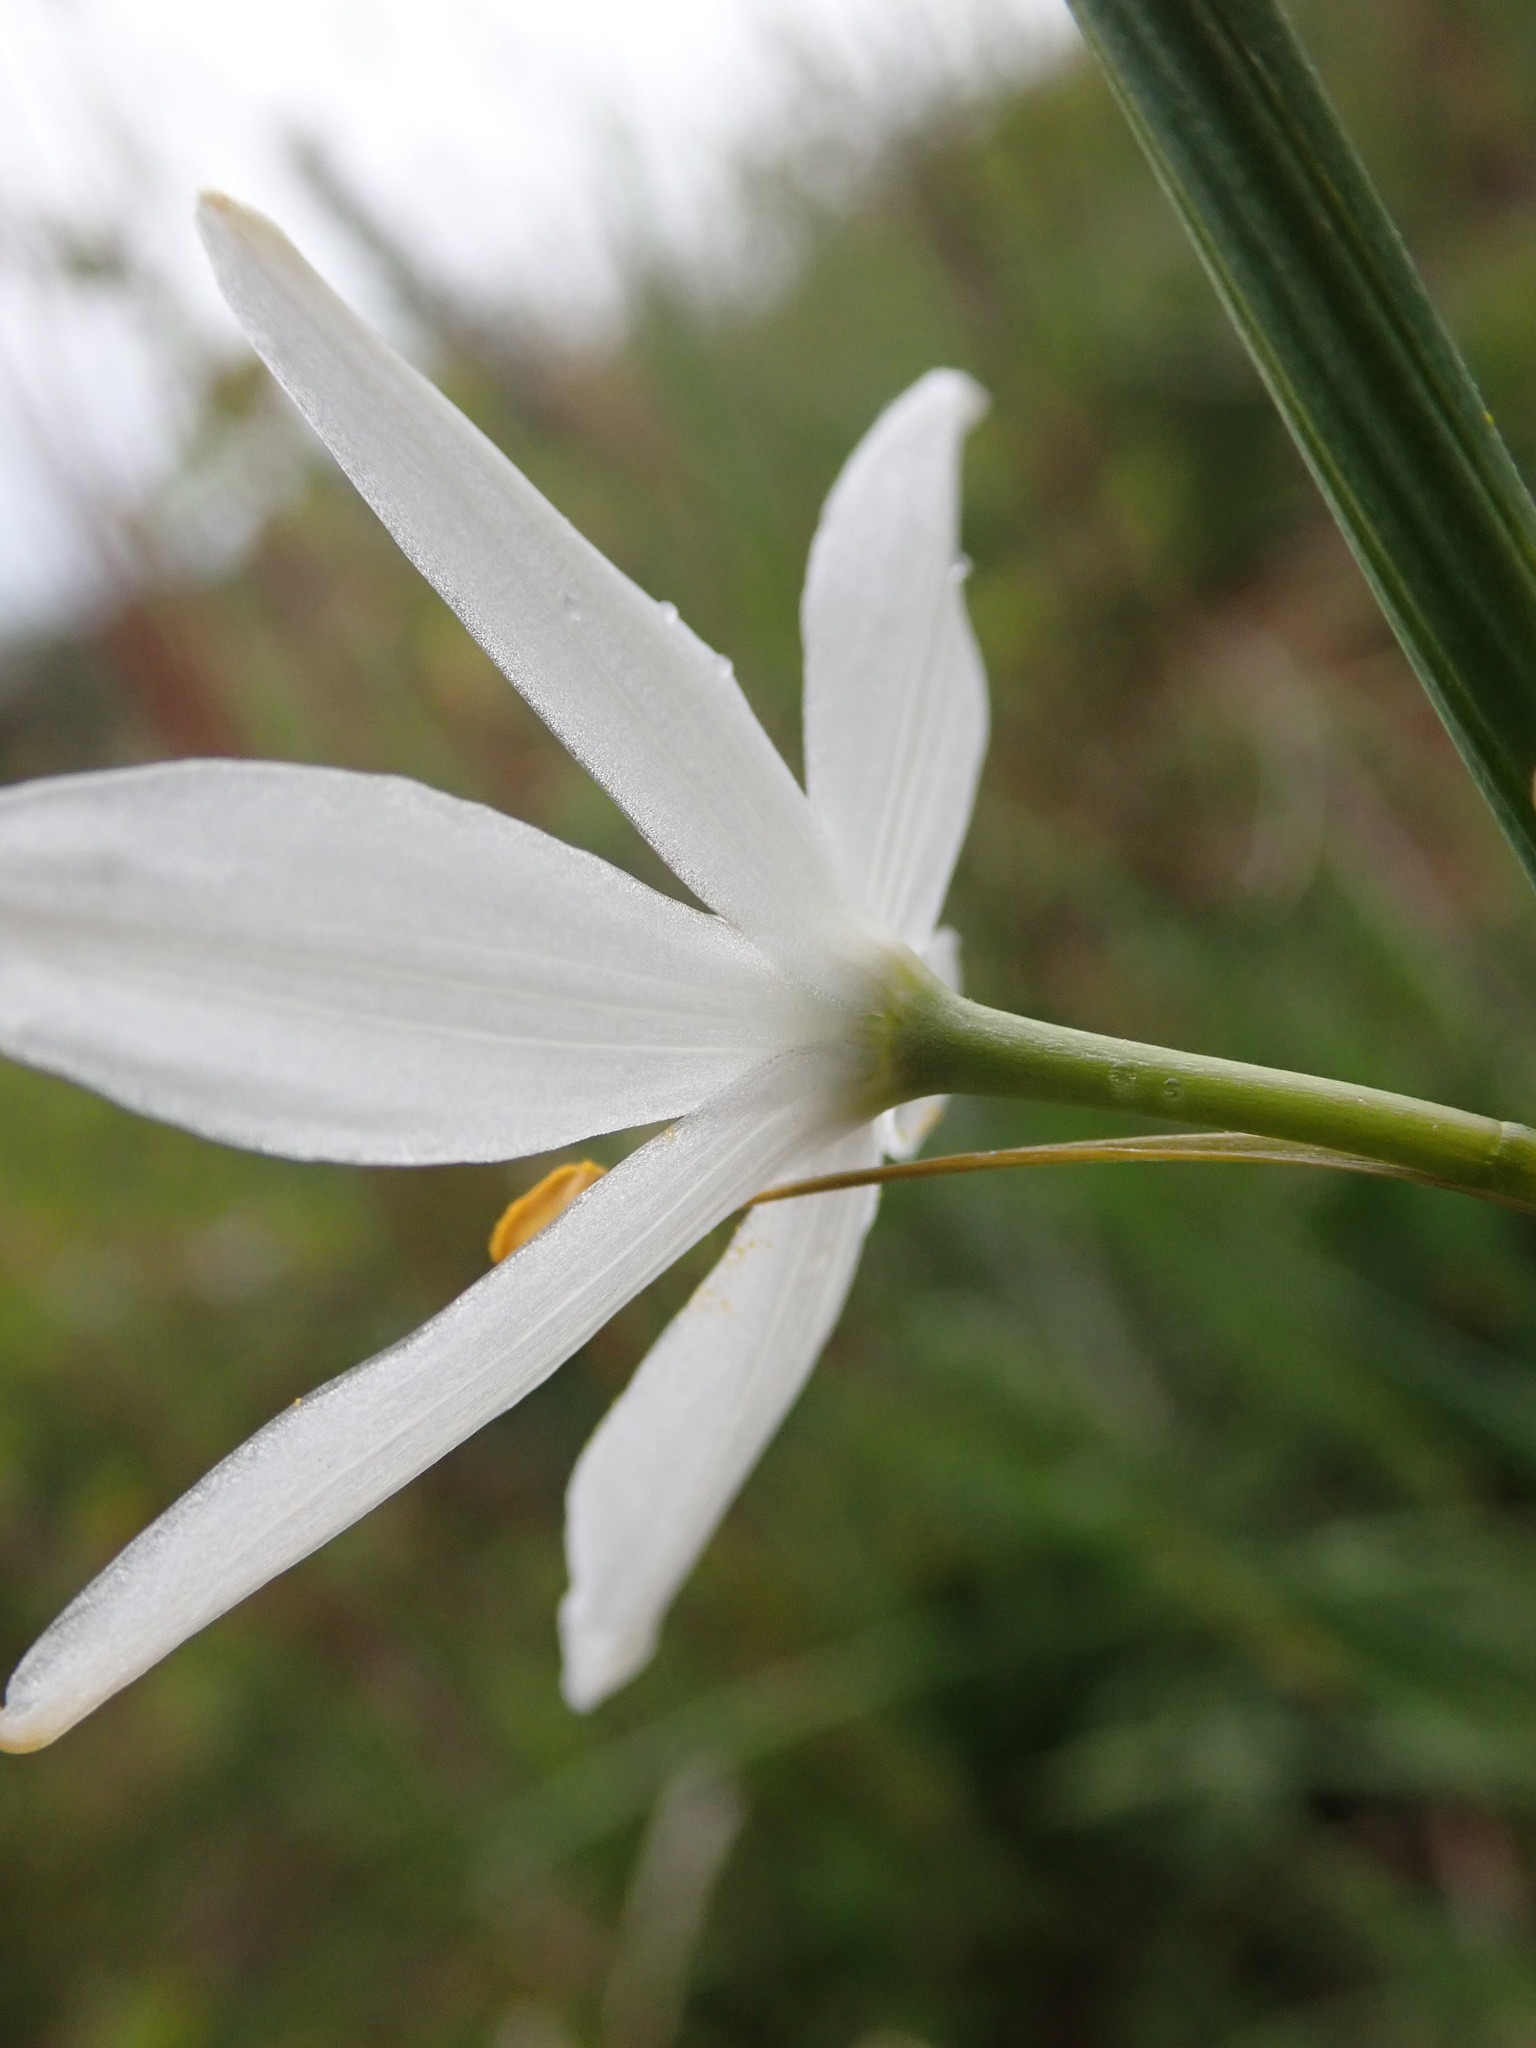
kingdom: Plantae
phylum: Tracheophyta
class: Liliopsida
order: Asparagales
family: Asparagaceae
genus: Anthericum
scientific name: Anthericum liliago
